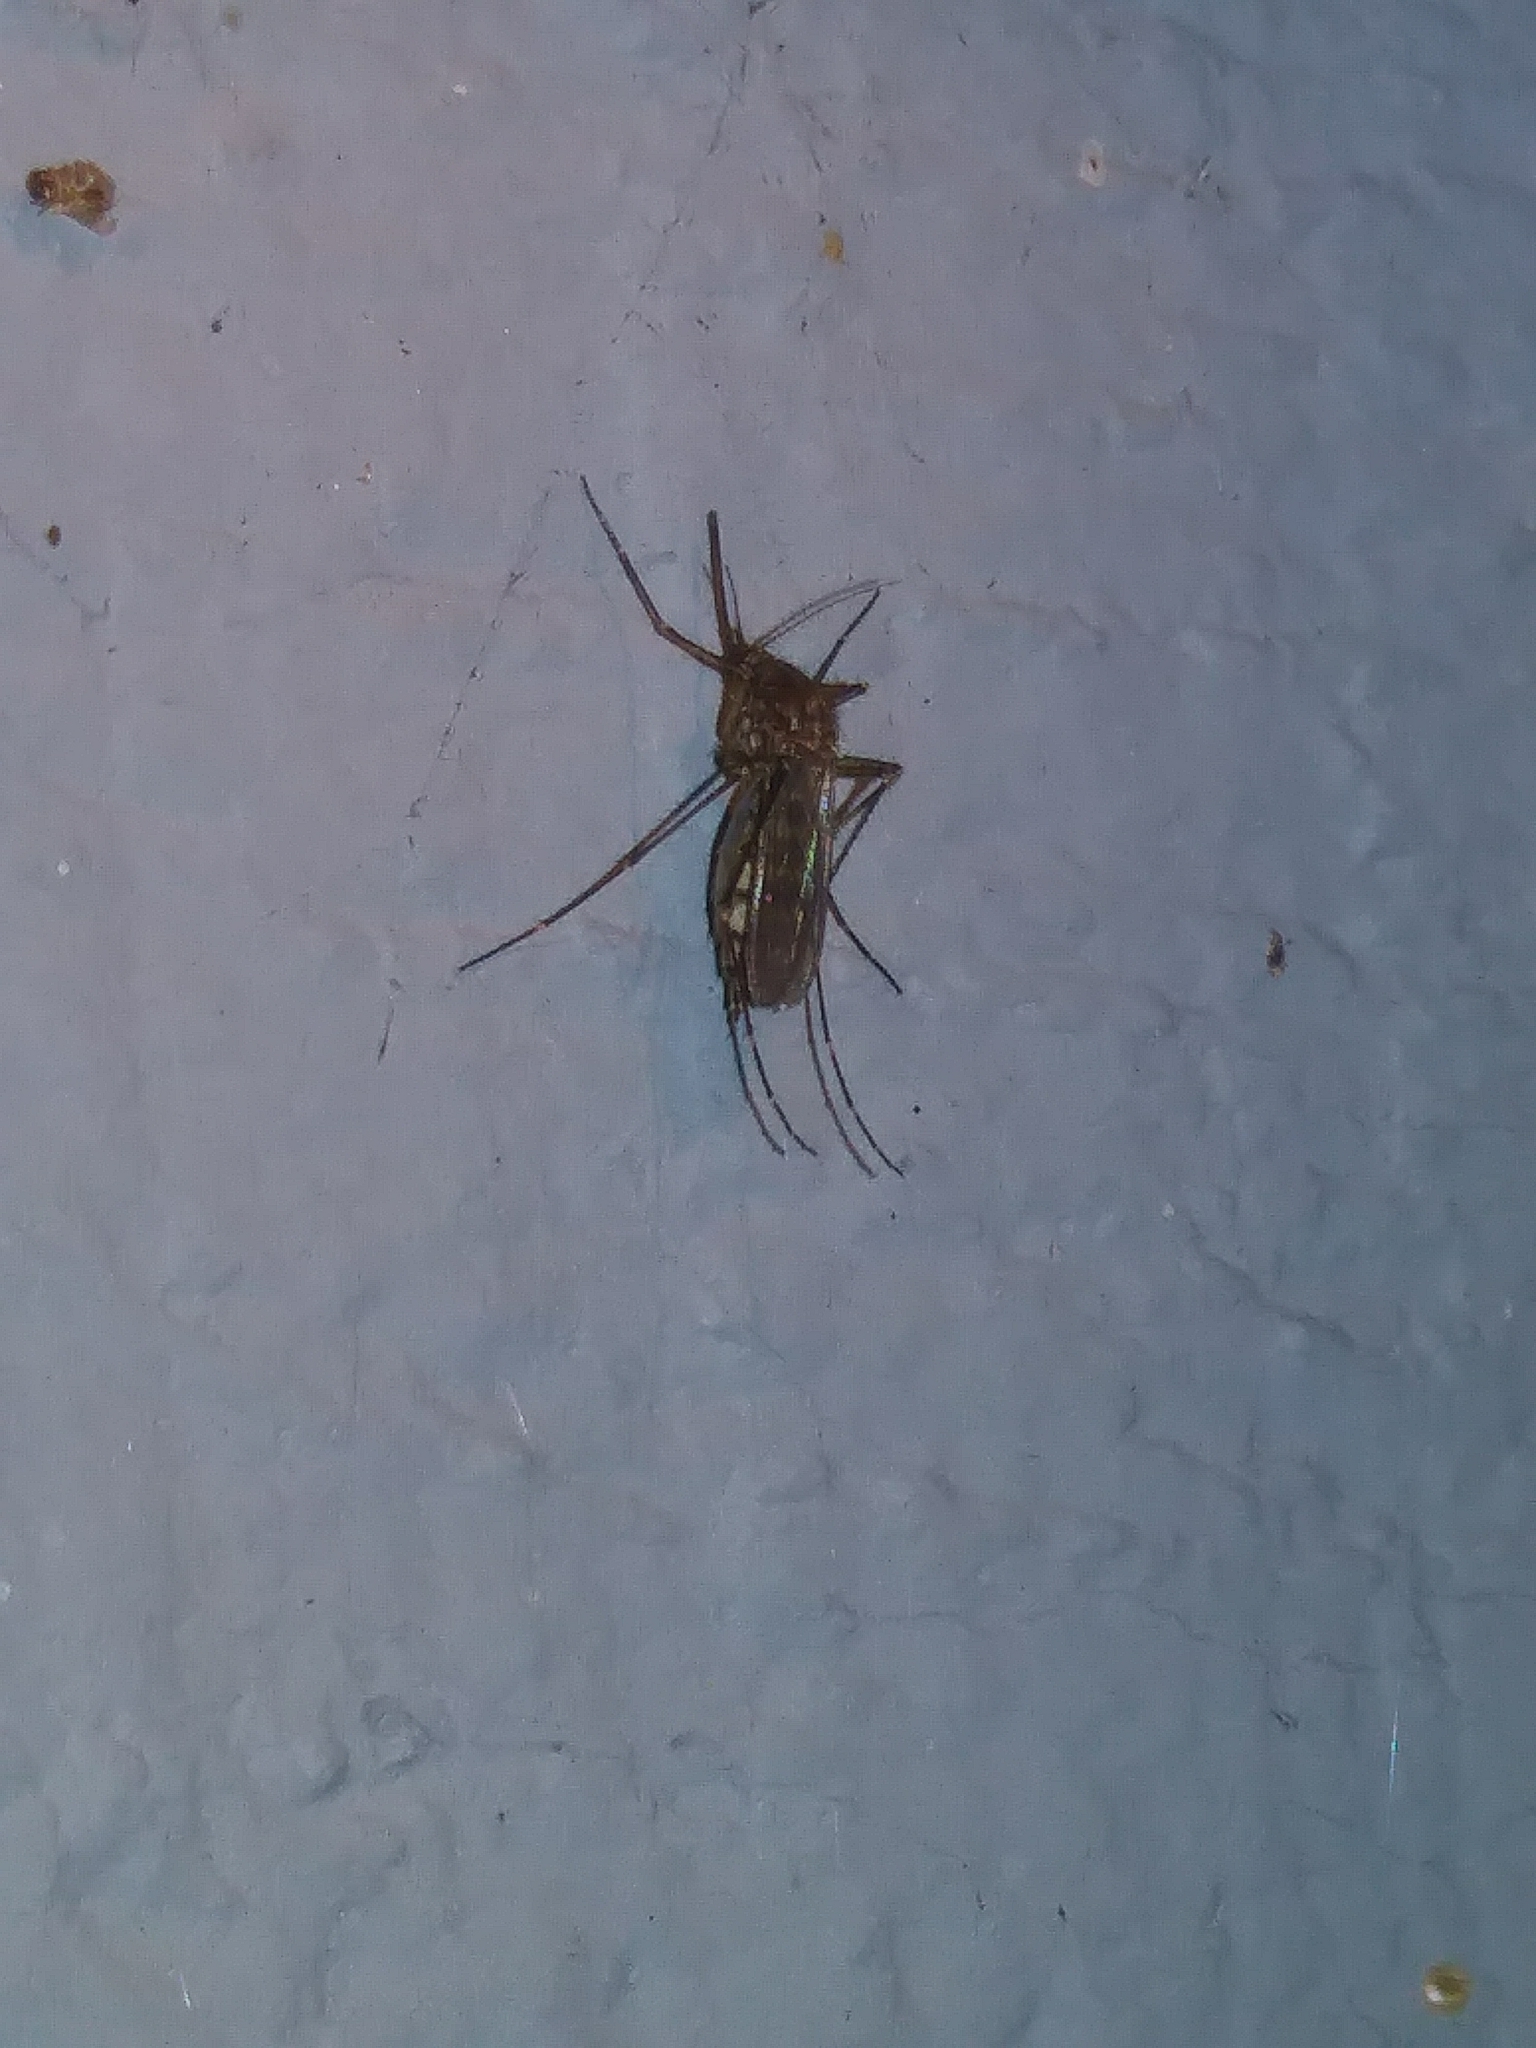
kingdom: Animalia
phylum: Arthropoda
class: Insecta
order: Diptera
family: Culicidae
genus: Aedes
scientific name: Aedes vexans
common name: Inland floodwater mosquito
